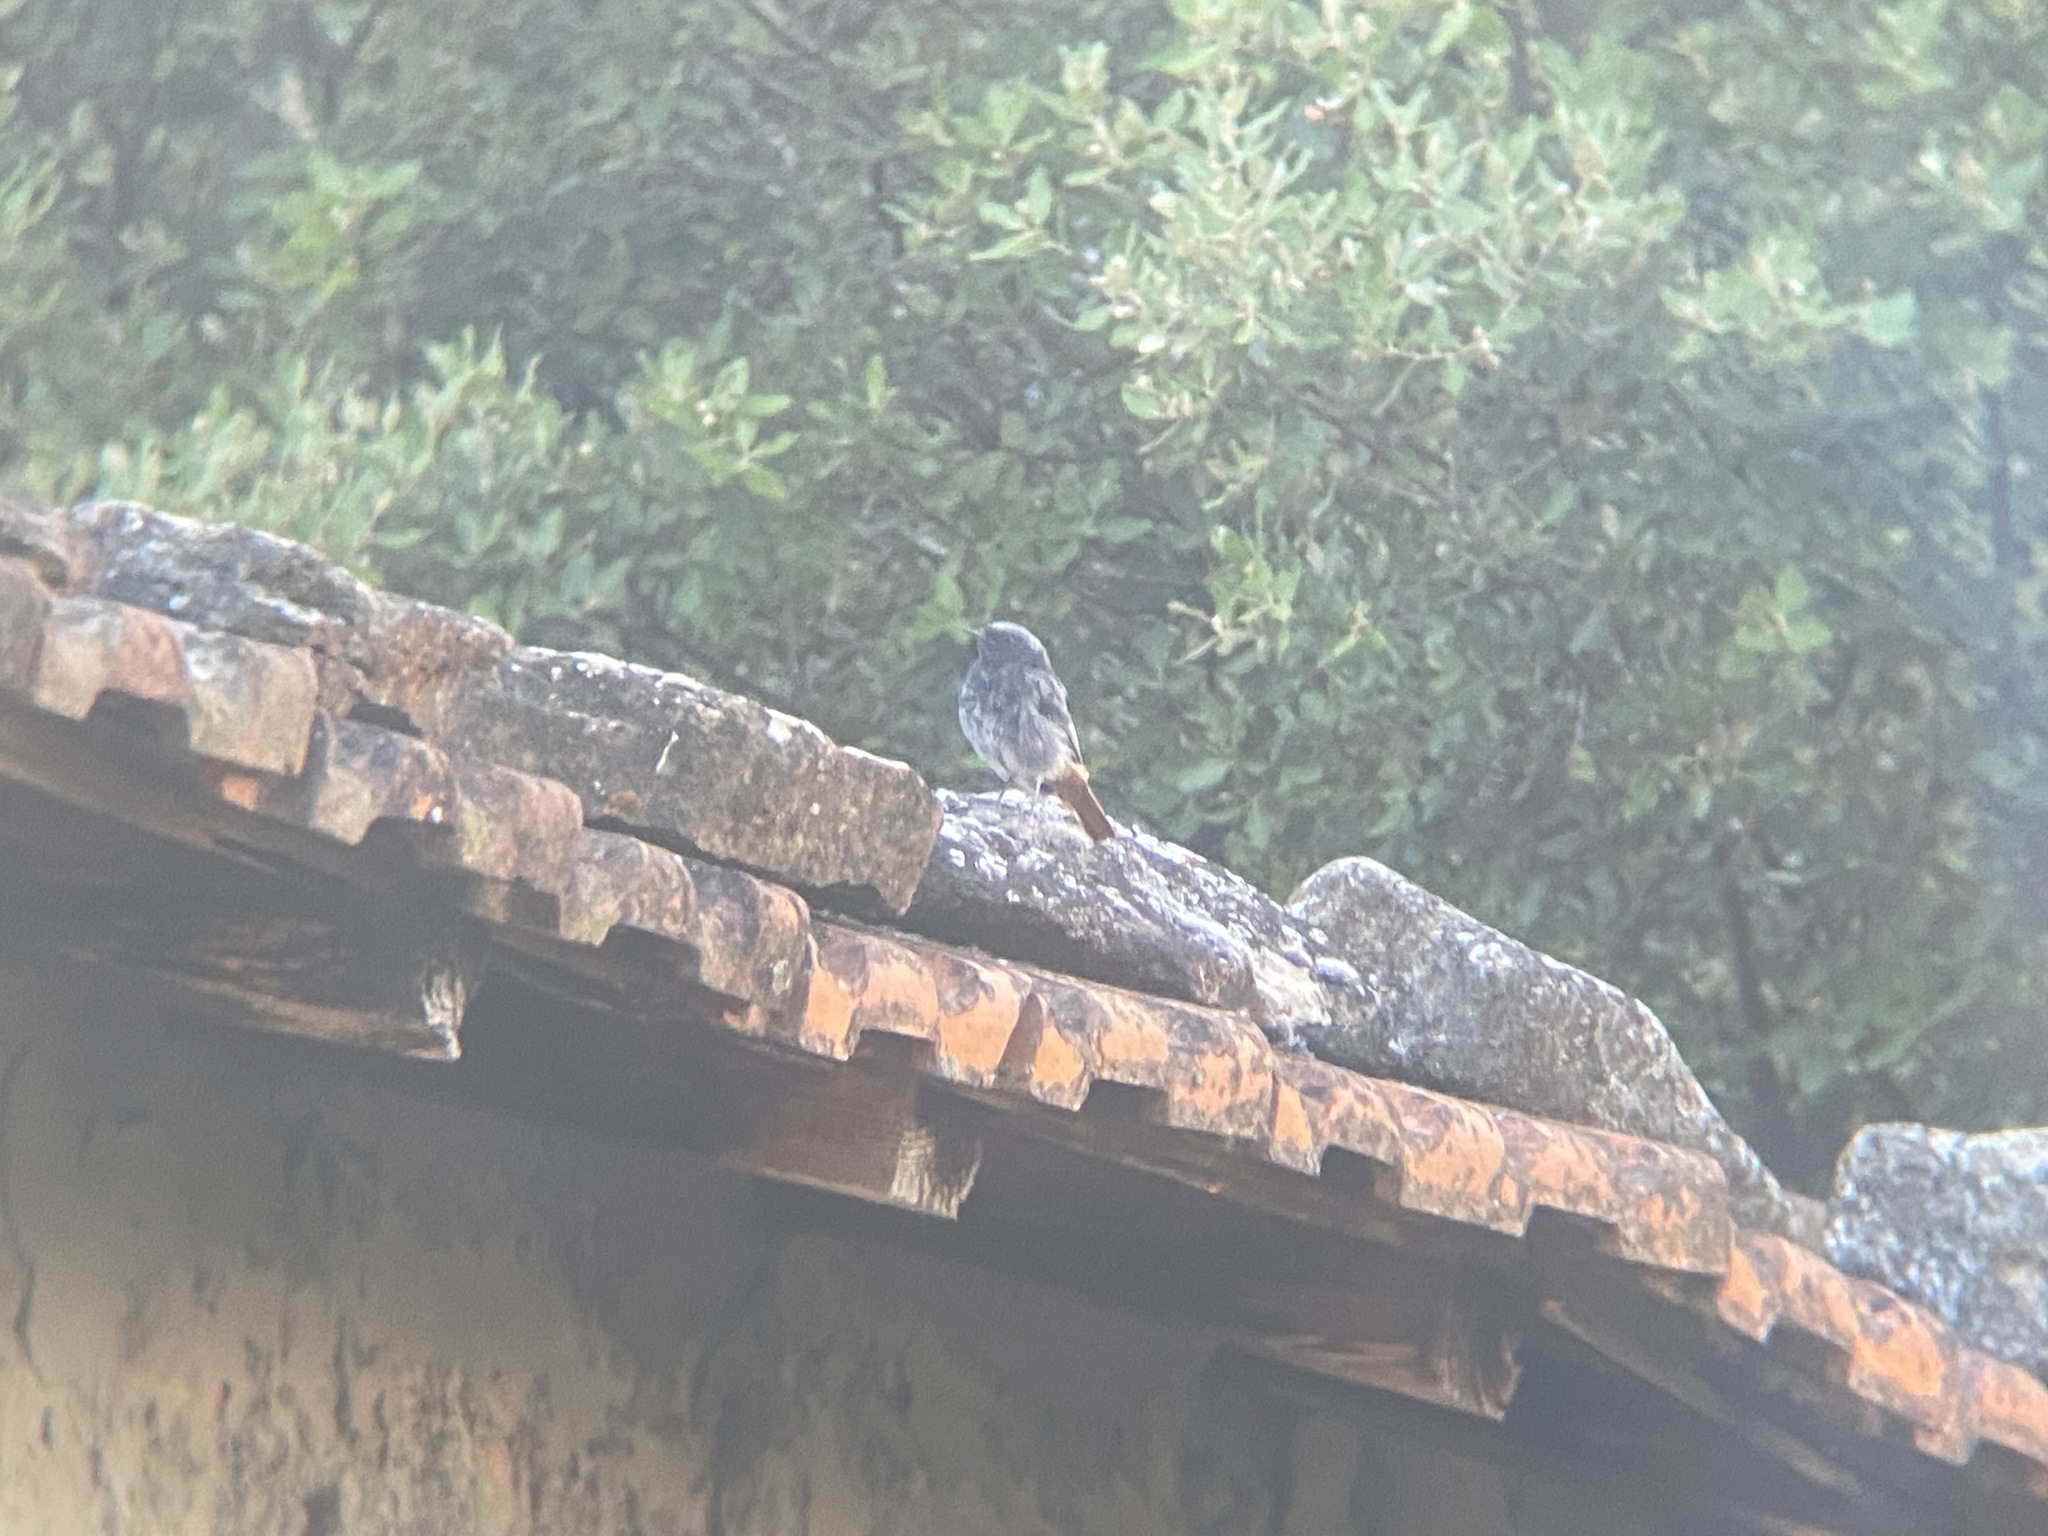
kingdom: Animalia
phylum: Chordata
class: Aves
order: Passeriformes
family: Muscicapidae
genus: Phoenicurus
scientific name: Phoenicurus ochruros
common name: Black redstart
